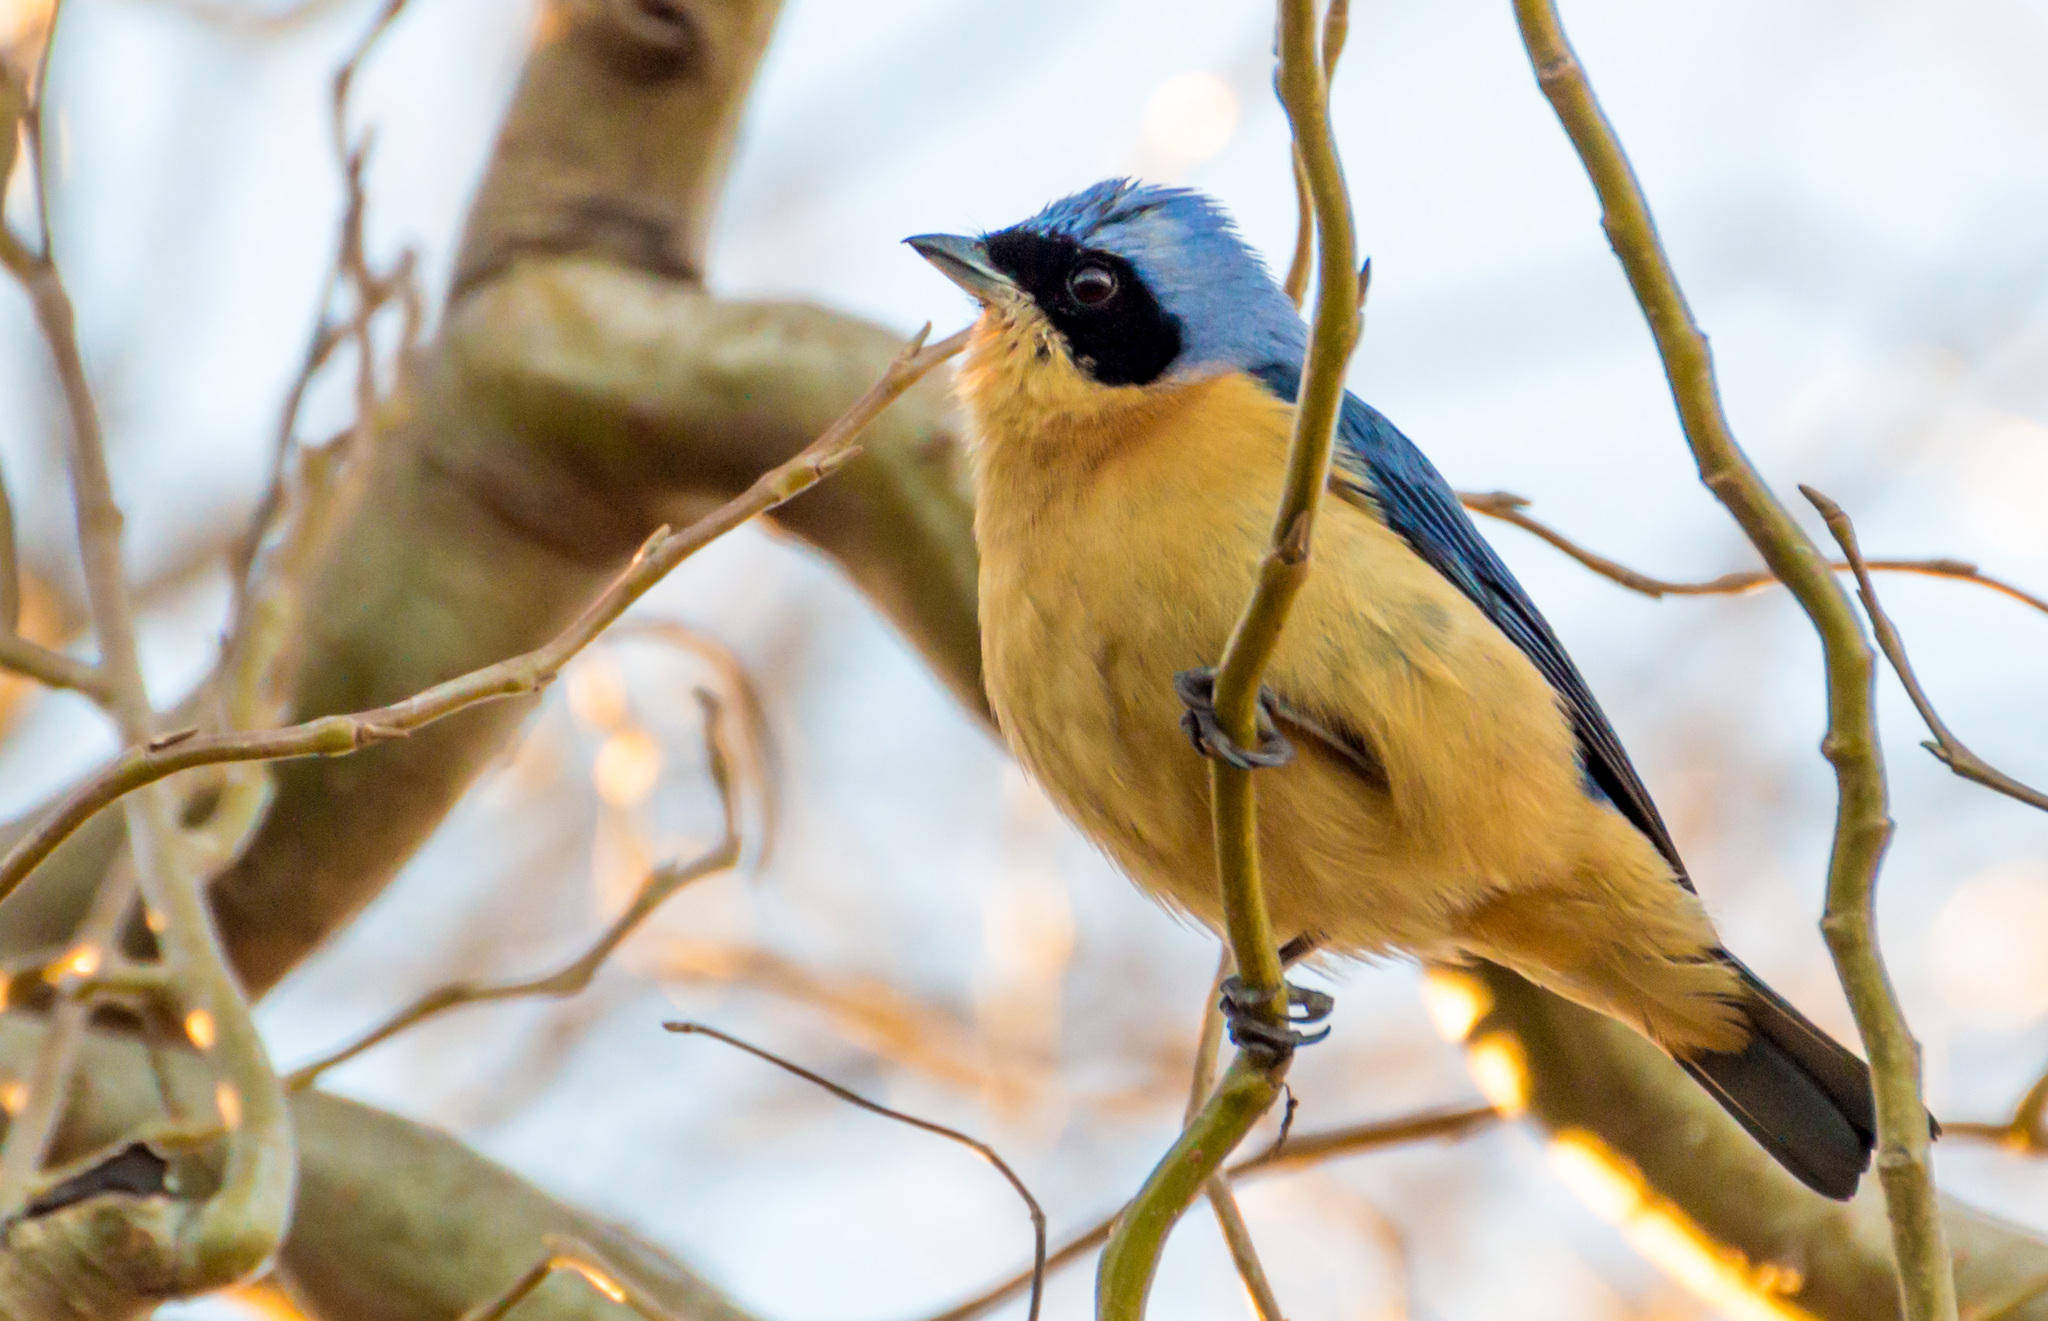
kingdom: Animalia
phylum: Chordata
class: Aves
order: Passeriformes
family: Thraupidae
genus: Pipraeidea
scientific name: Pipraeidea melanonota
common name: Fawn-breasted tanager
